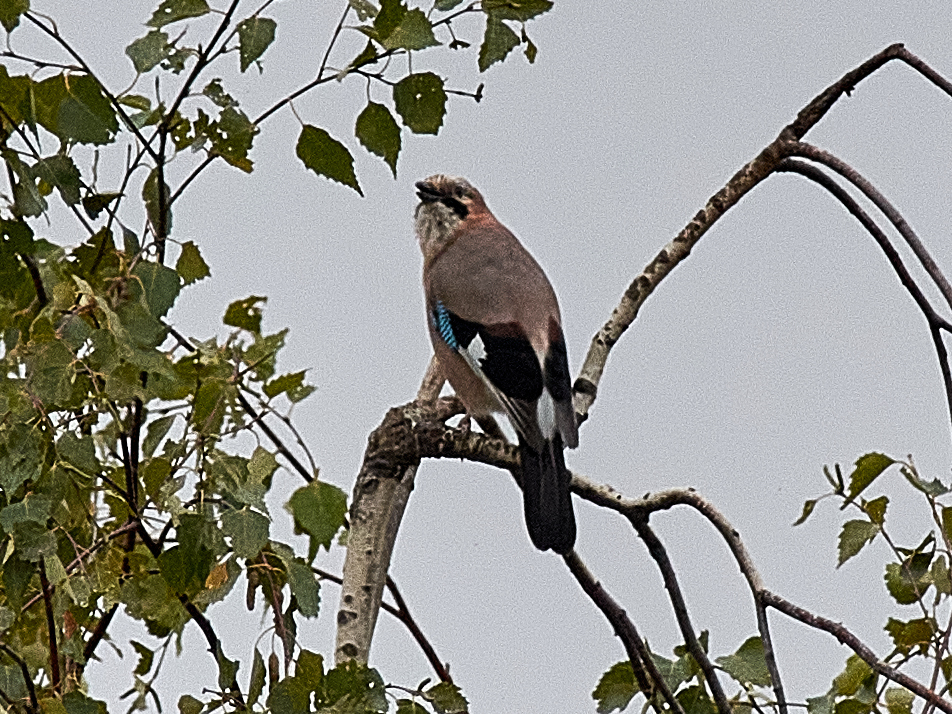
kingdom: Animalia
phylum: Chordata
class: Aves
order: Passeriformes
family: Corvidae
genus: Garrulus
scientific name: Garrulus glandarius
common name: Eurasian jay
